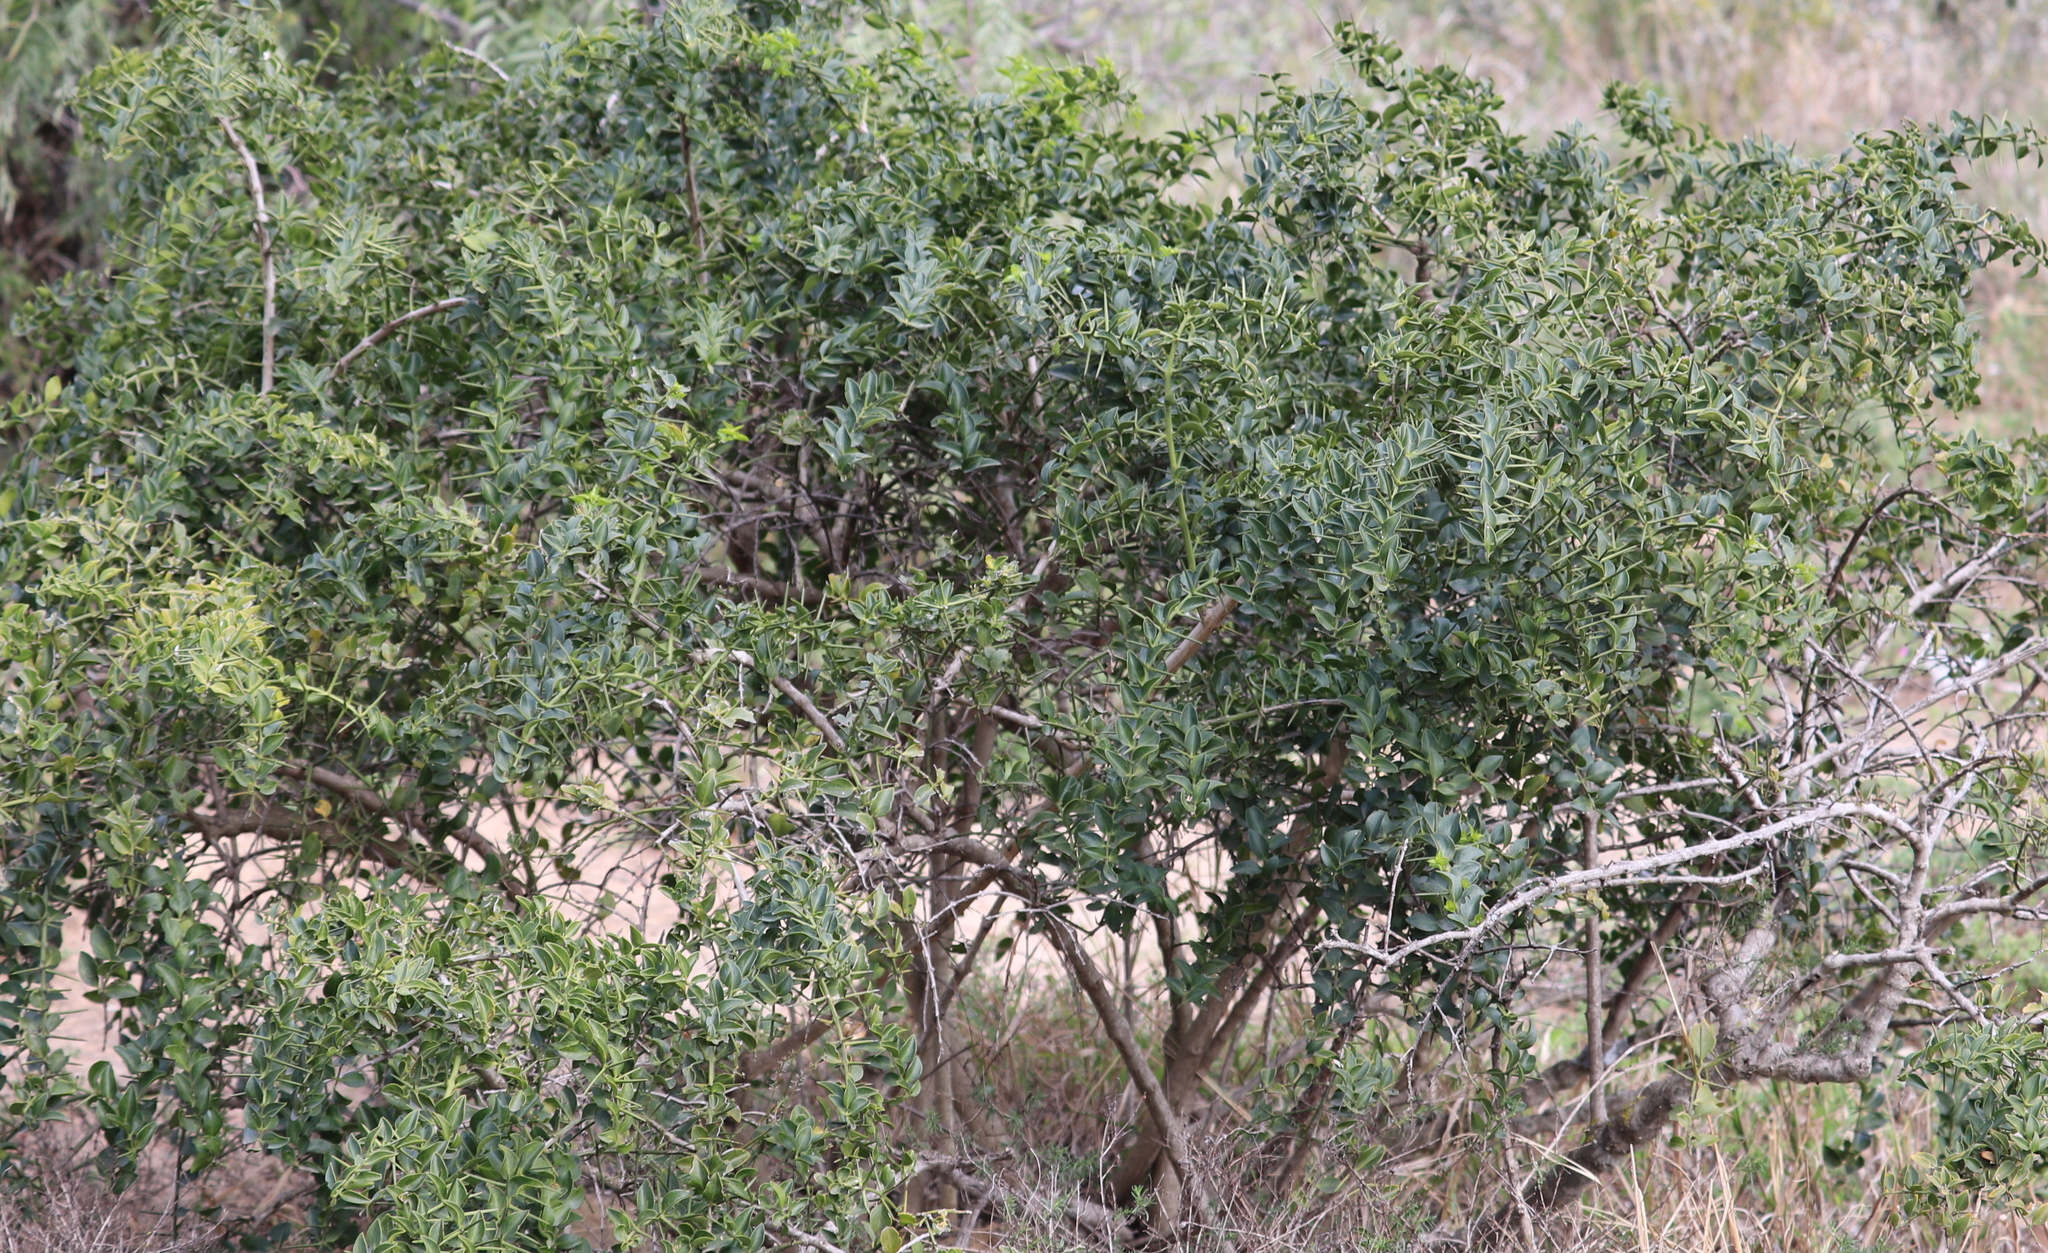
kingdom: Plantae
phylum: Tracheophyta
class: Magnoliopsida
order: Brassicales
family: Salvadoraceae
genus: Azima
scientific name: Azima tetracantha
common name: Needle bush
